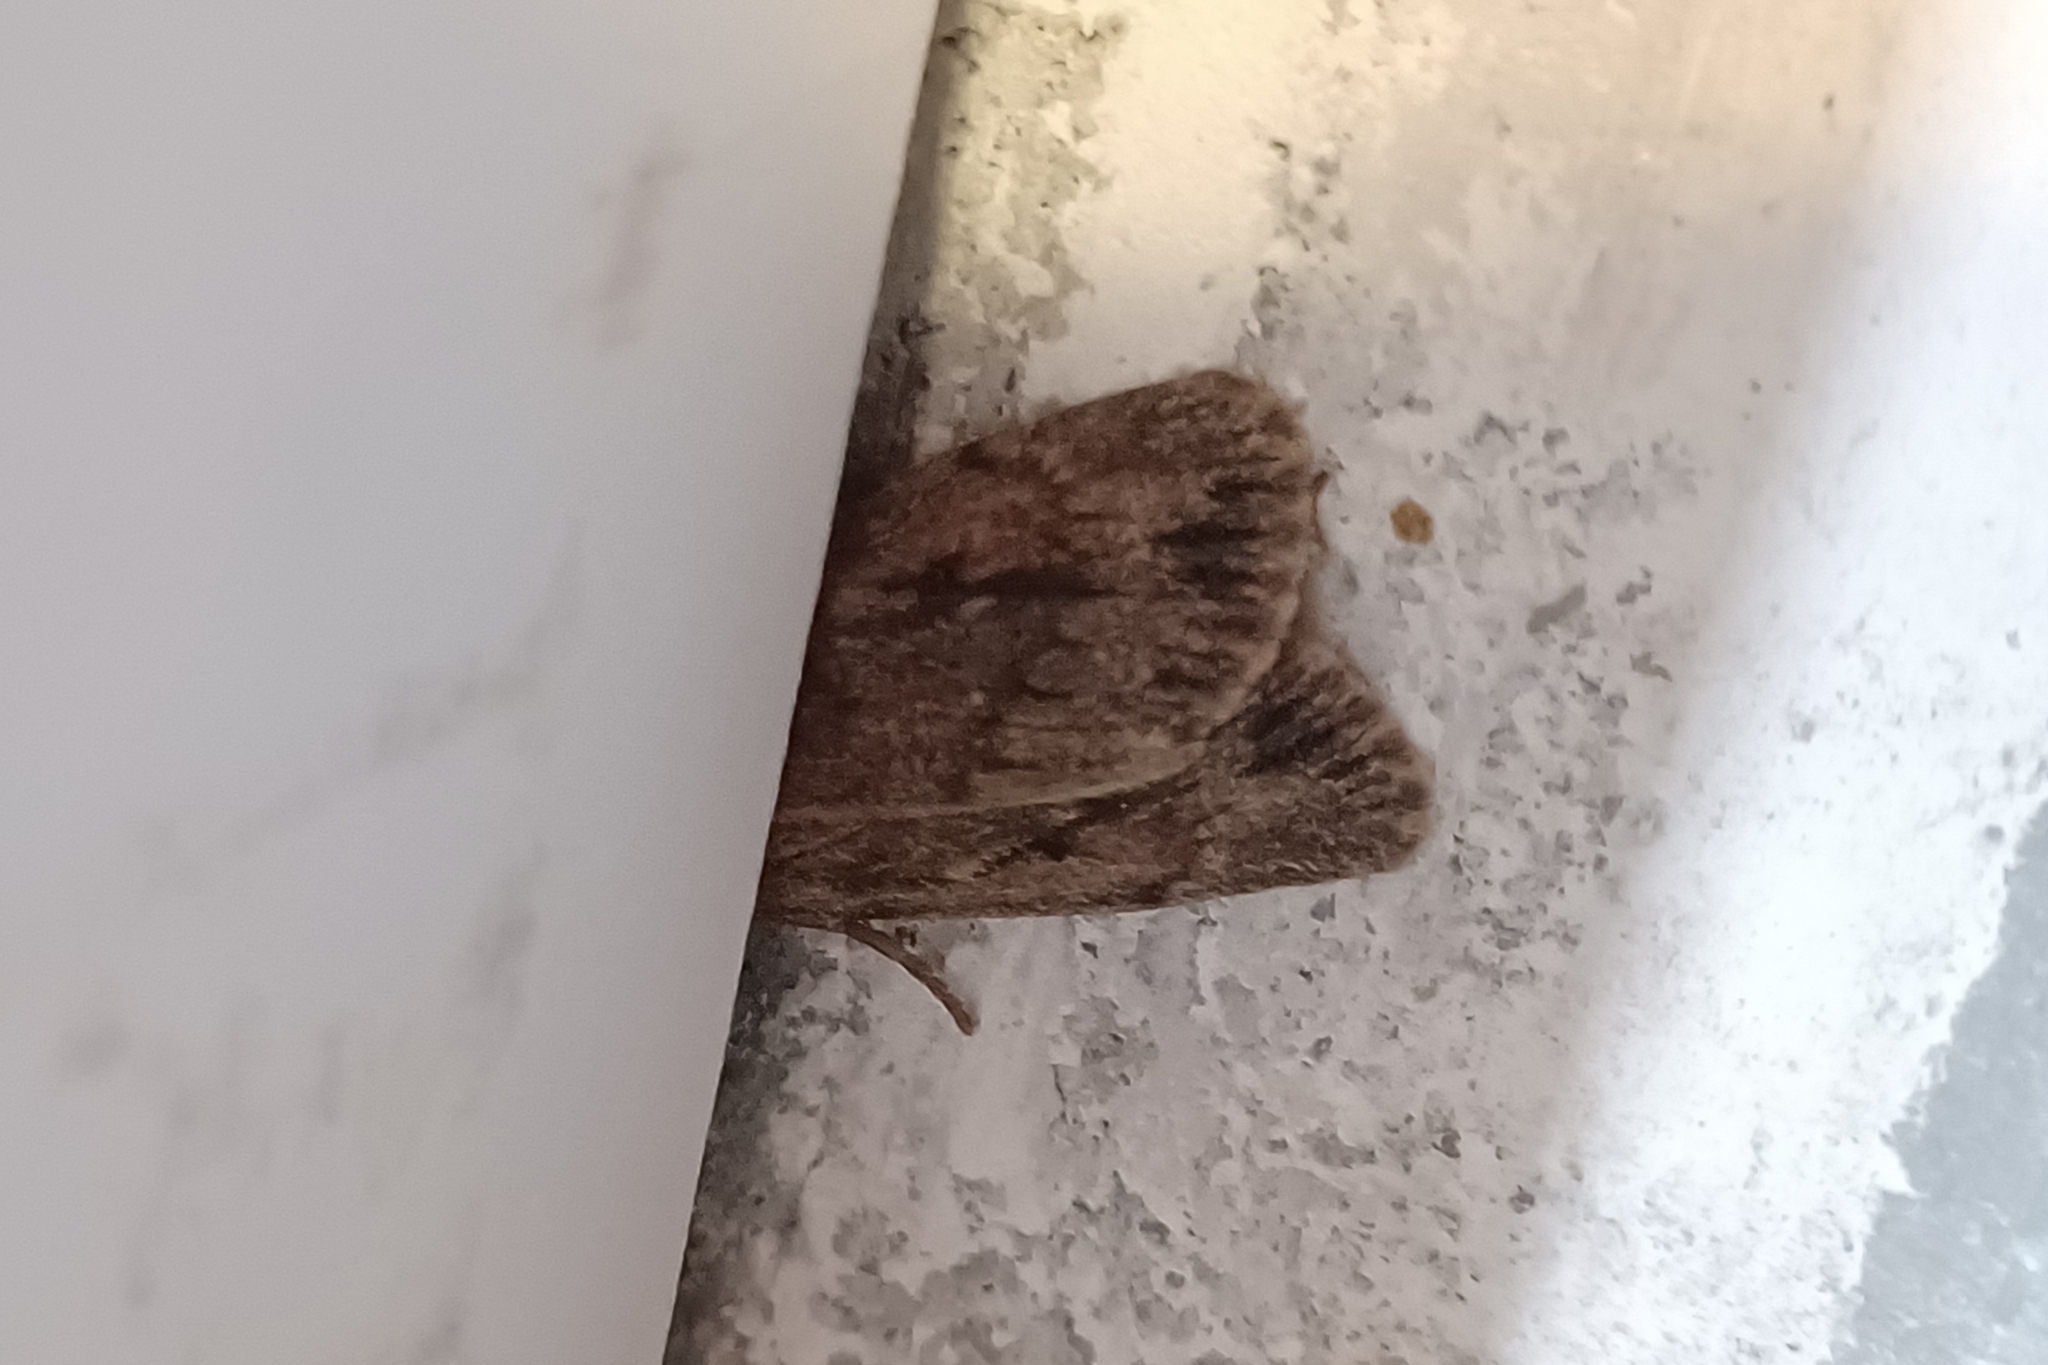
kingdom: Animalia
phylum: Arthropoda
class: Insecta
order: Lepidoptera
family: Noctuidae
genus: Ufeus
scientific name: Ufeus satyricus
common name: Brown satyr moth
